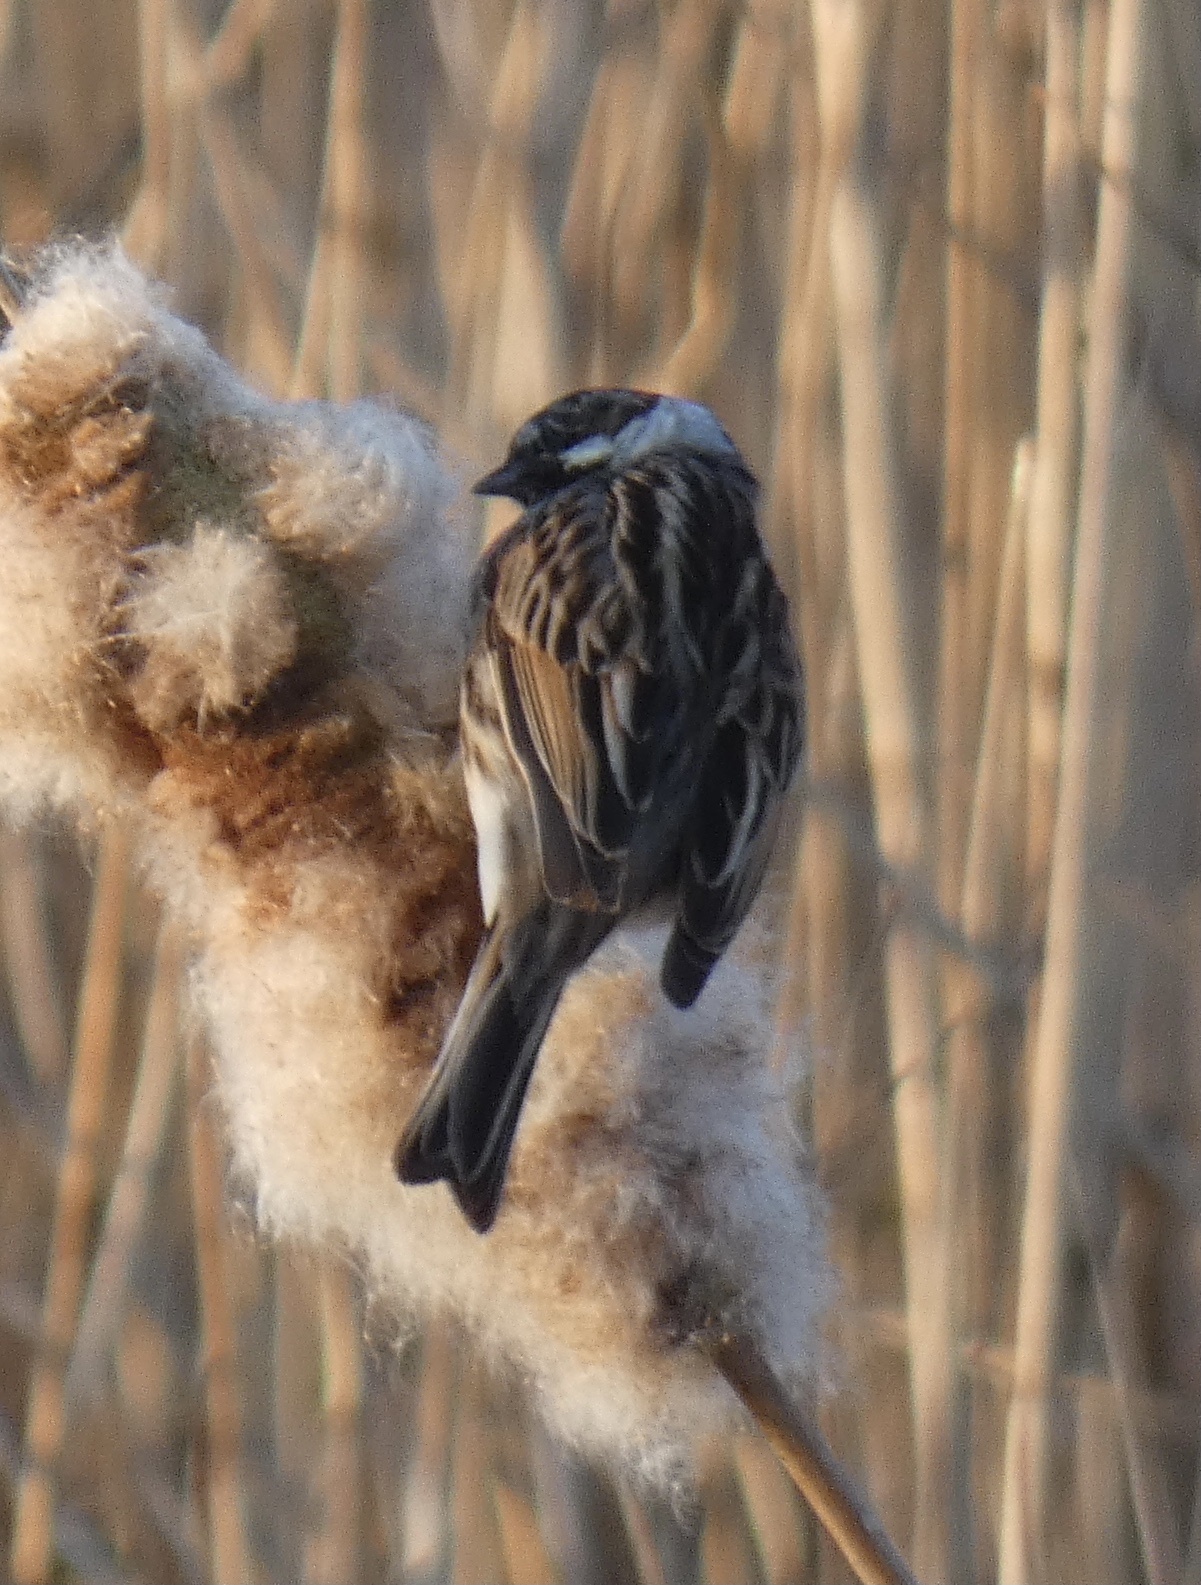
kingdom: Animalia
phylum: Chordata
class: Aves
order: Passeriformes
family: Emberizidae
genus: Emberiza
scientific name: Emberiza schoeniclus
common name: Reed bunting
